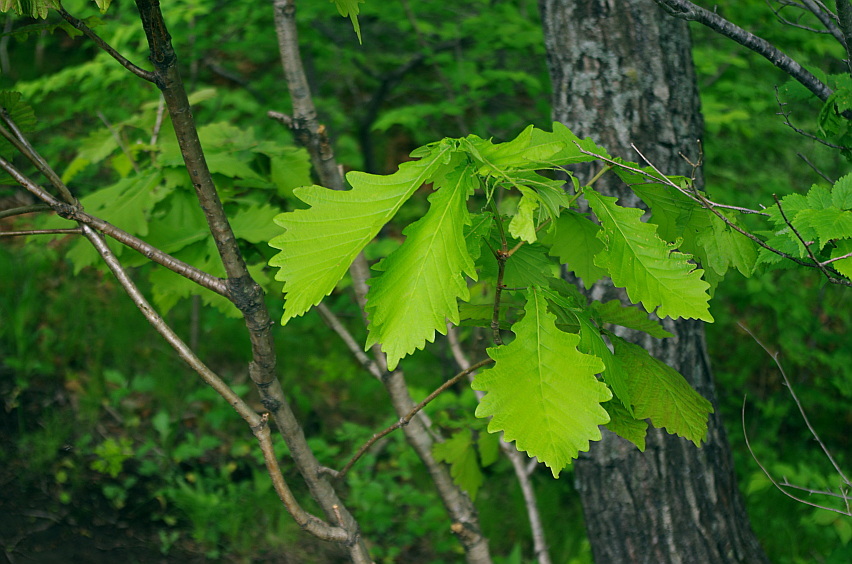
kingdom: Plantae
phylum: Tracheophyta
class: Magnoliopsida
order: Fagales
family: Fagaceae
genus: Quercus
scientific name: Quercus mongolica
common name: Mongolian oak
